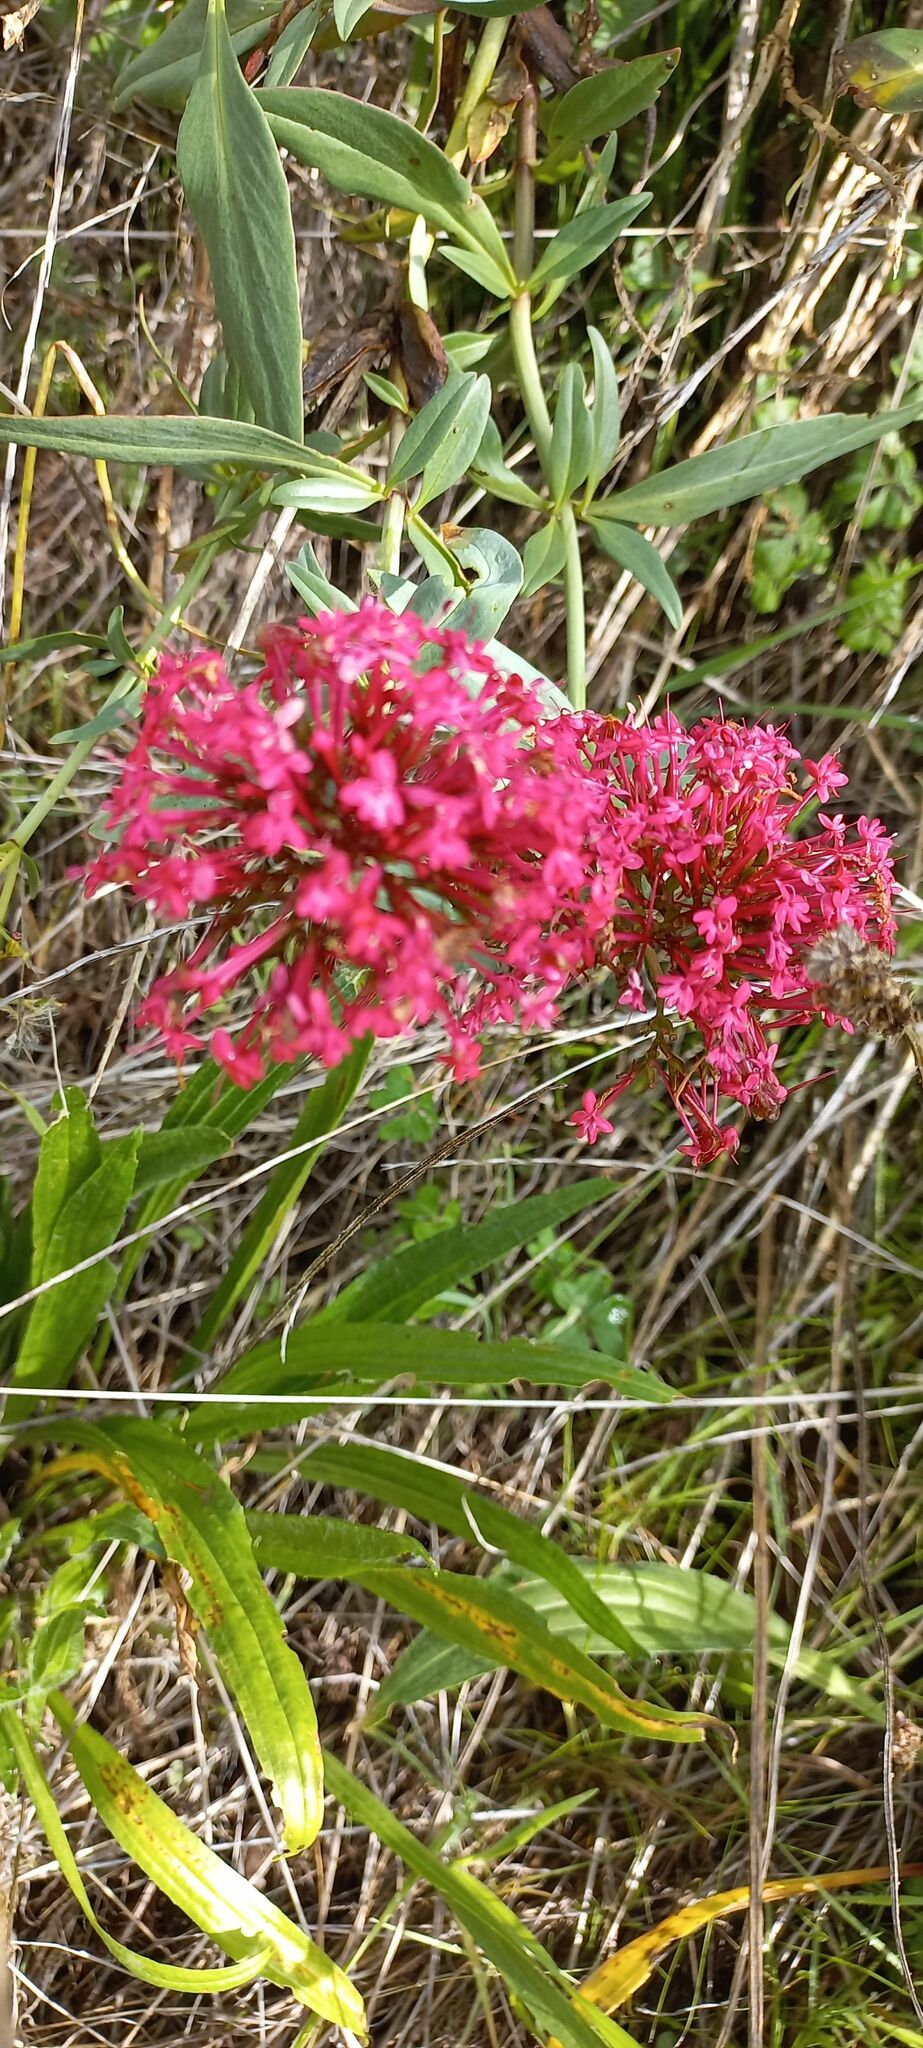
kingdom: Plantae
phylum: Tracheophyta
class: Magnoliopsida
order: Dipsacales
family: Caprifoliaceae
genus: Centranthus
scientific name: Centranthus ruber
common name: Red valerian
